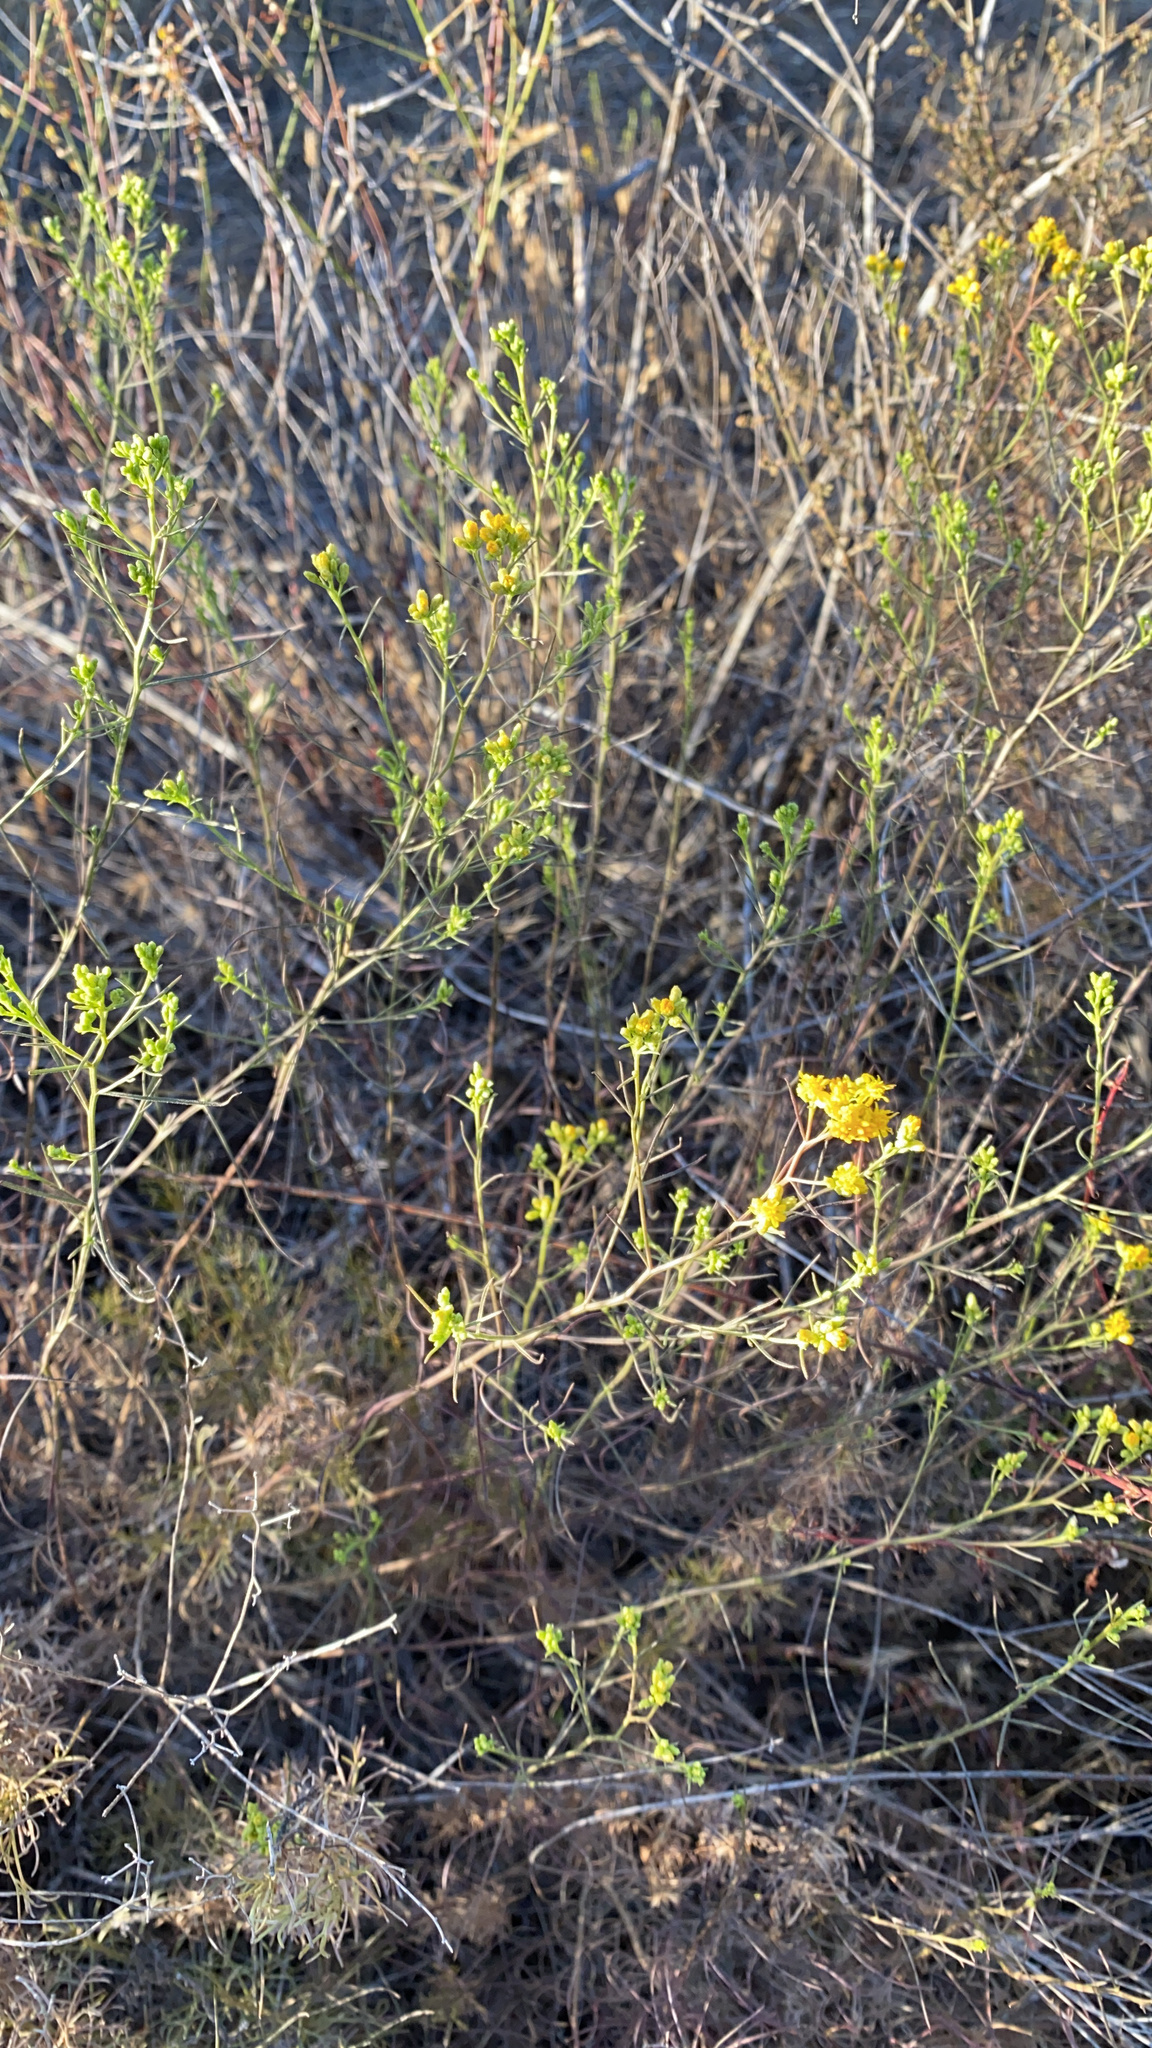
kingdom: Plantae
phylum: Tracheophyta
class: Liliopsida
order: Liliales
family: Liliaceae
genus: Calochortus
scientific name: Calochortus weedii
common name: Weed's mariposa-lily
